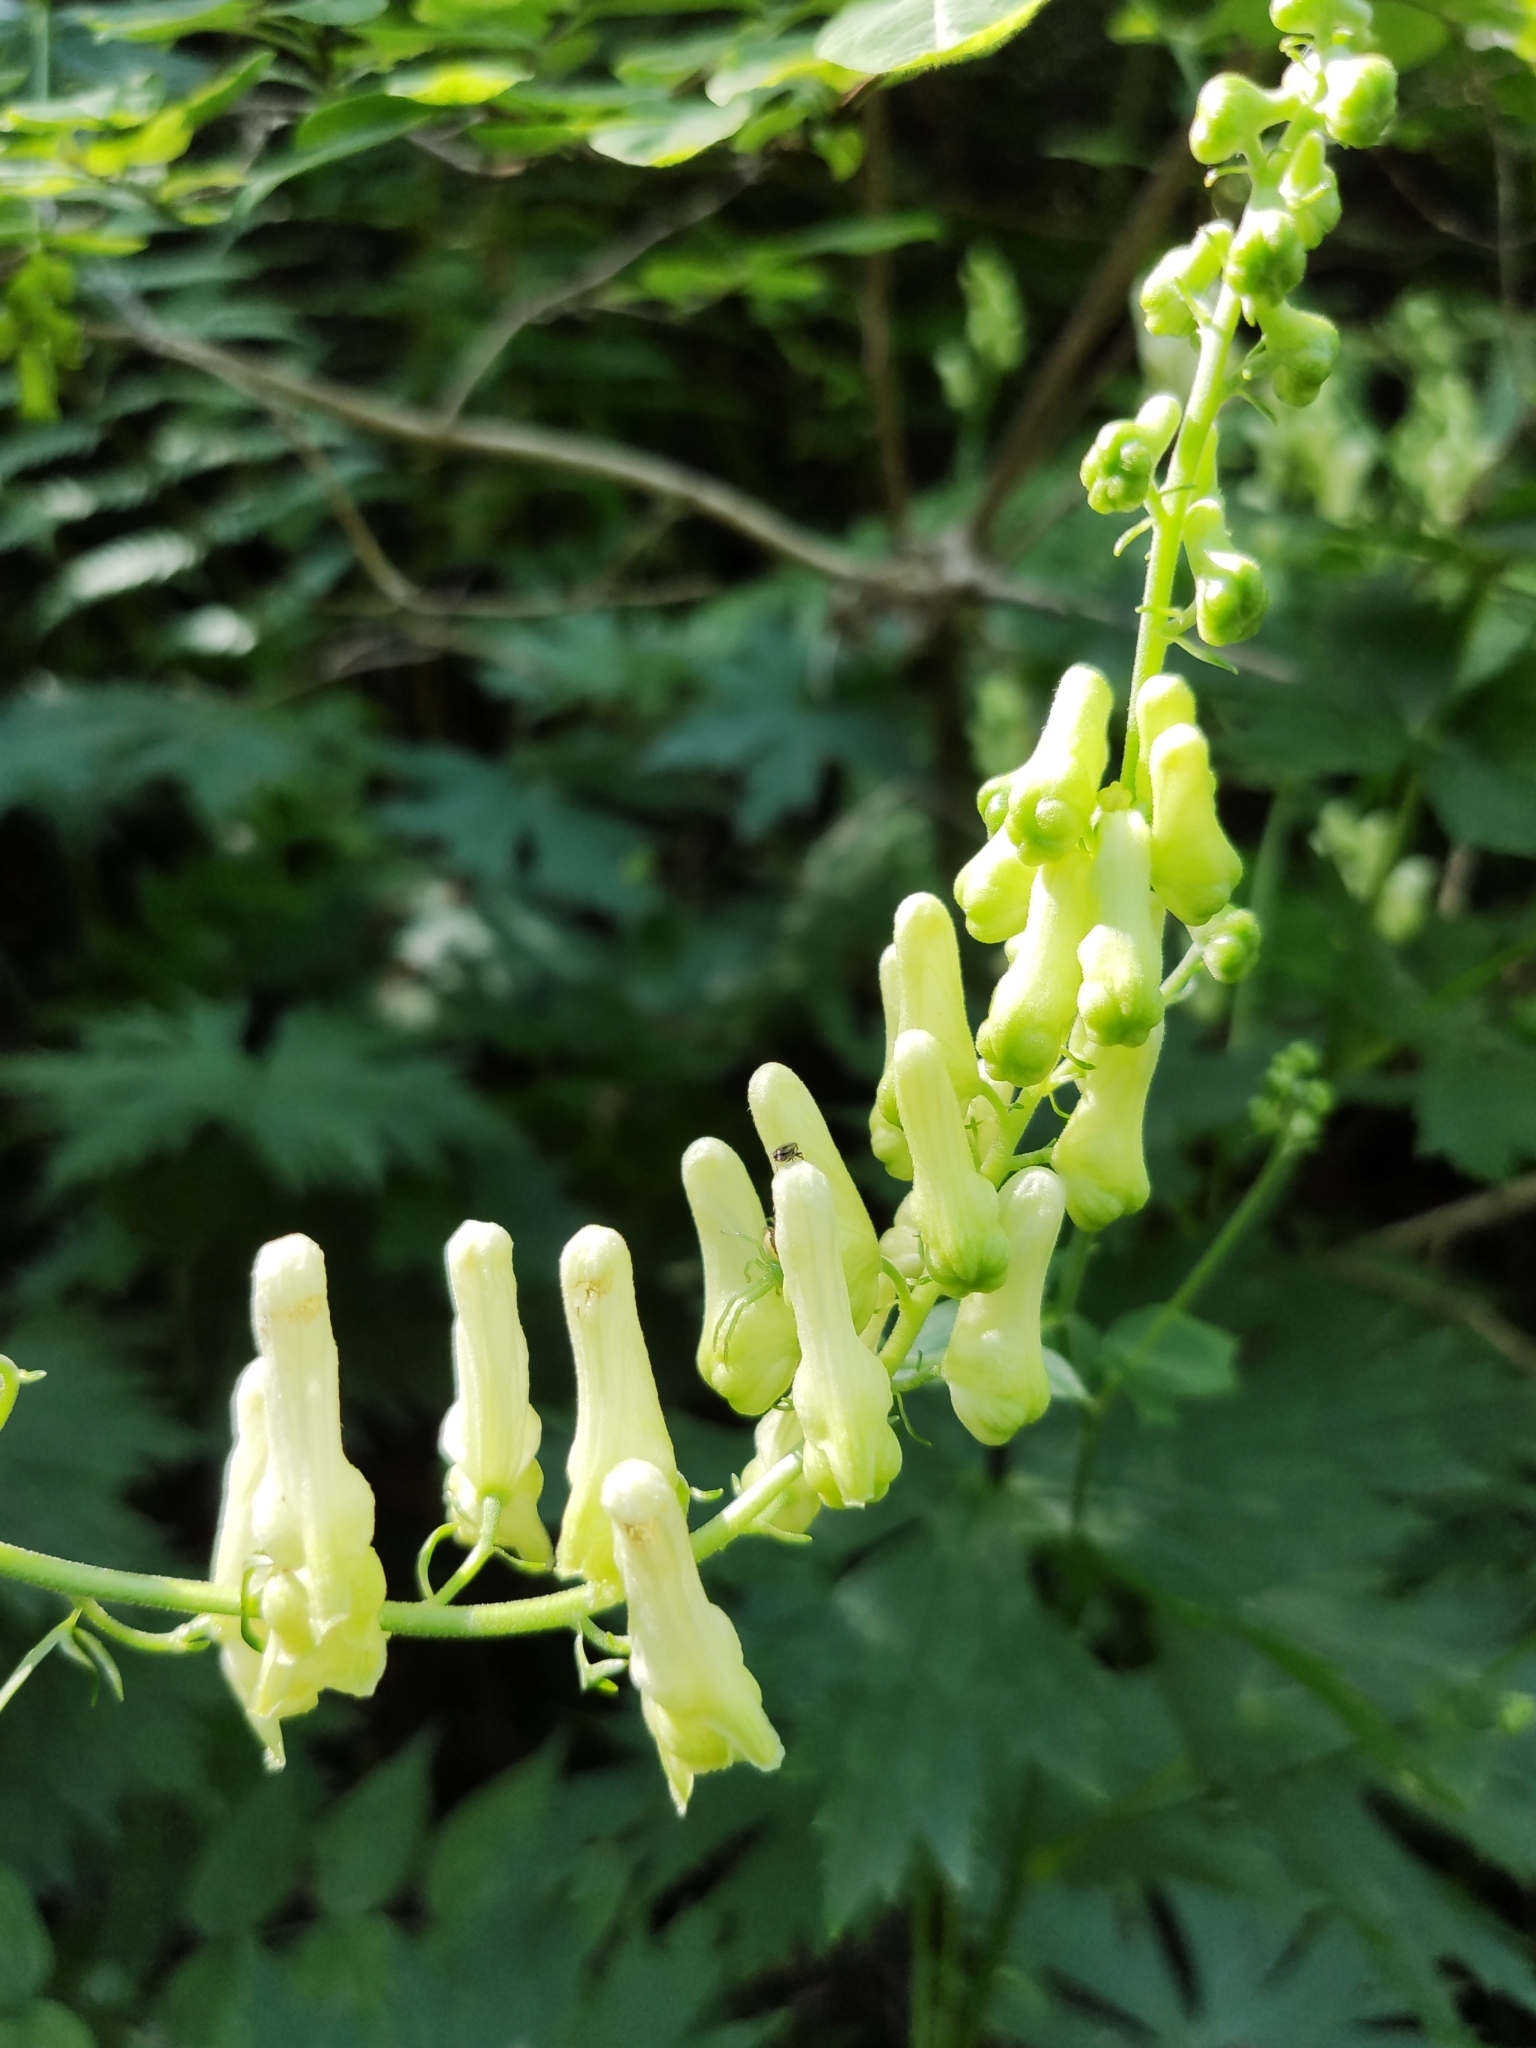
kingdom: Plantae
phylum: Tracheophyta
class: Magnoliopsida
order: Ranunculales
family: Ranunculaceae
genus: Aconitum
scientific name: Aconitum lycoctonum
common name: Wolf's-bane
